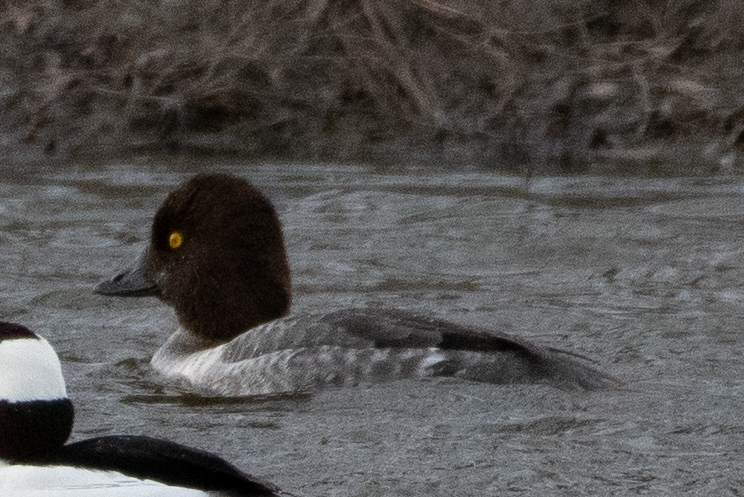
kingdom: Animalia
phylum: Chordata
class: Aves
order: Anseriformes
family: Anatidae
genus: Bucephala
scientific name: Bucephala clangula
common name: Common goldeneye
